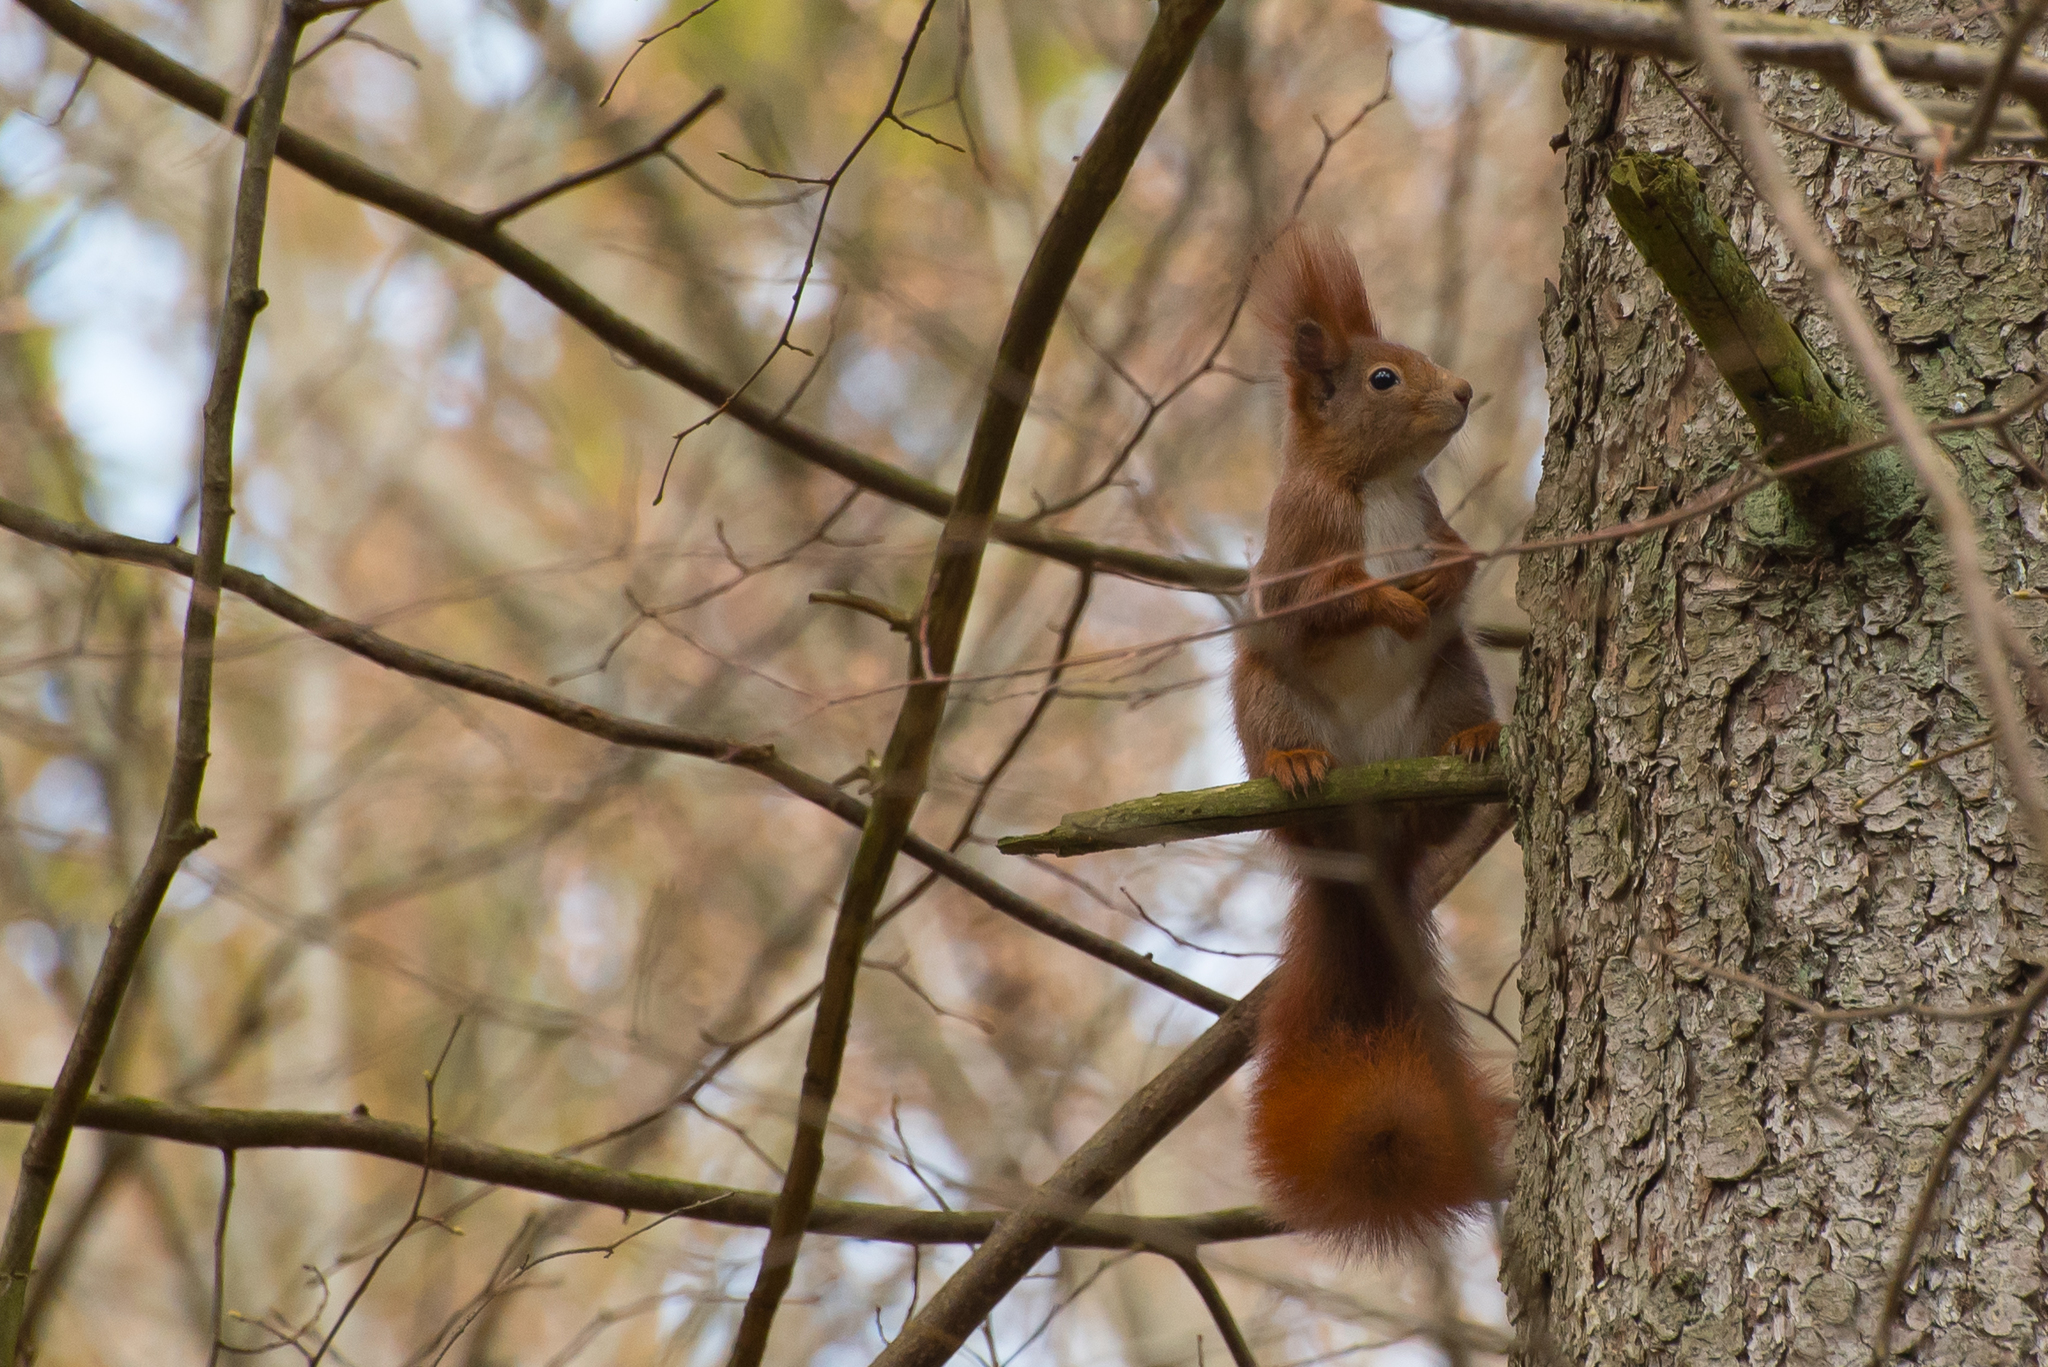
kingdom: Animalia
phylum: Chordata
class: Mammalia
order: Rodentia
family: Sciuridae
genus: Sciurus
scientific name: Sciurus vulgaris
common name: Eurasian red squirrel
